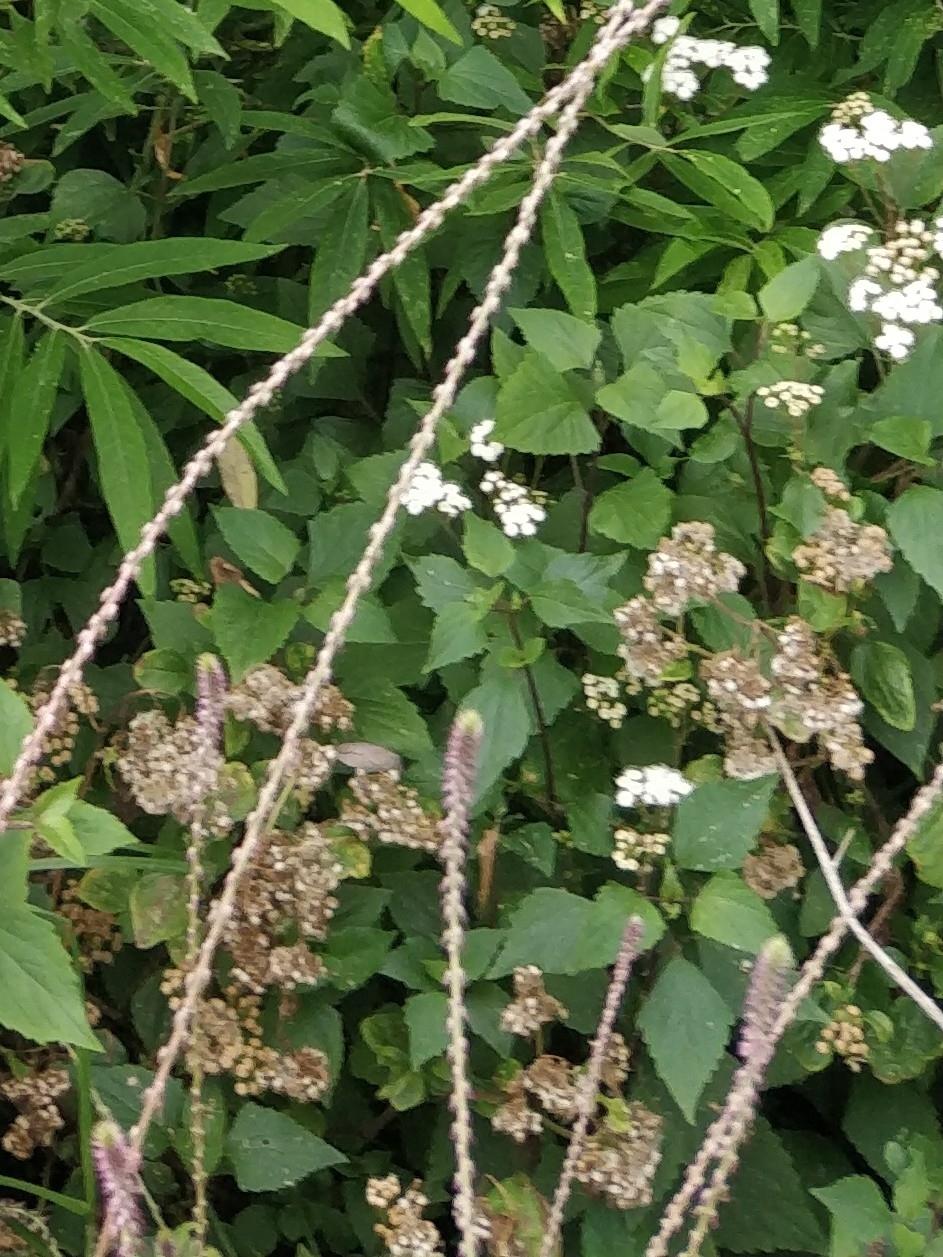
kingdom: Plantae
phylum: Tracheophyta
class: Magnoliopsida
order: Asterales
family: Asteraceae
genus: Ageratina
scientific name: Ageratina adenophora
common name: Sticky snakeroot
